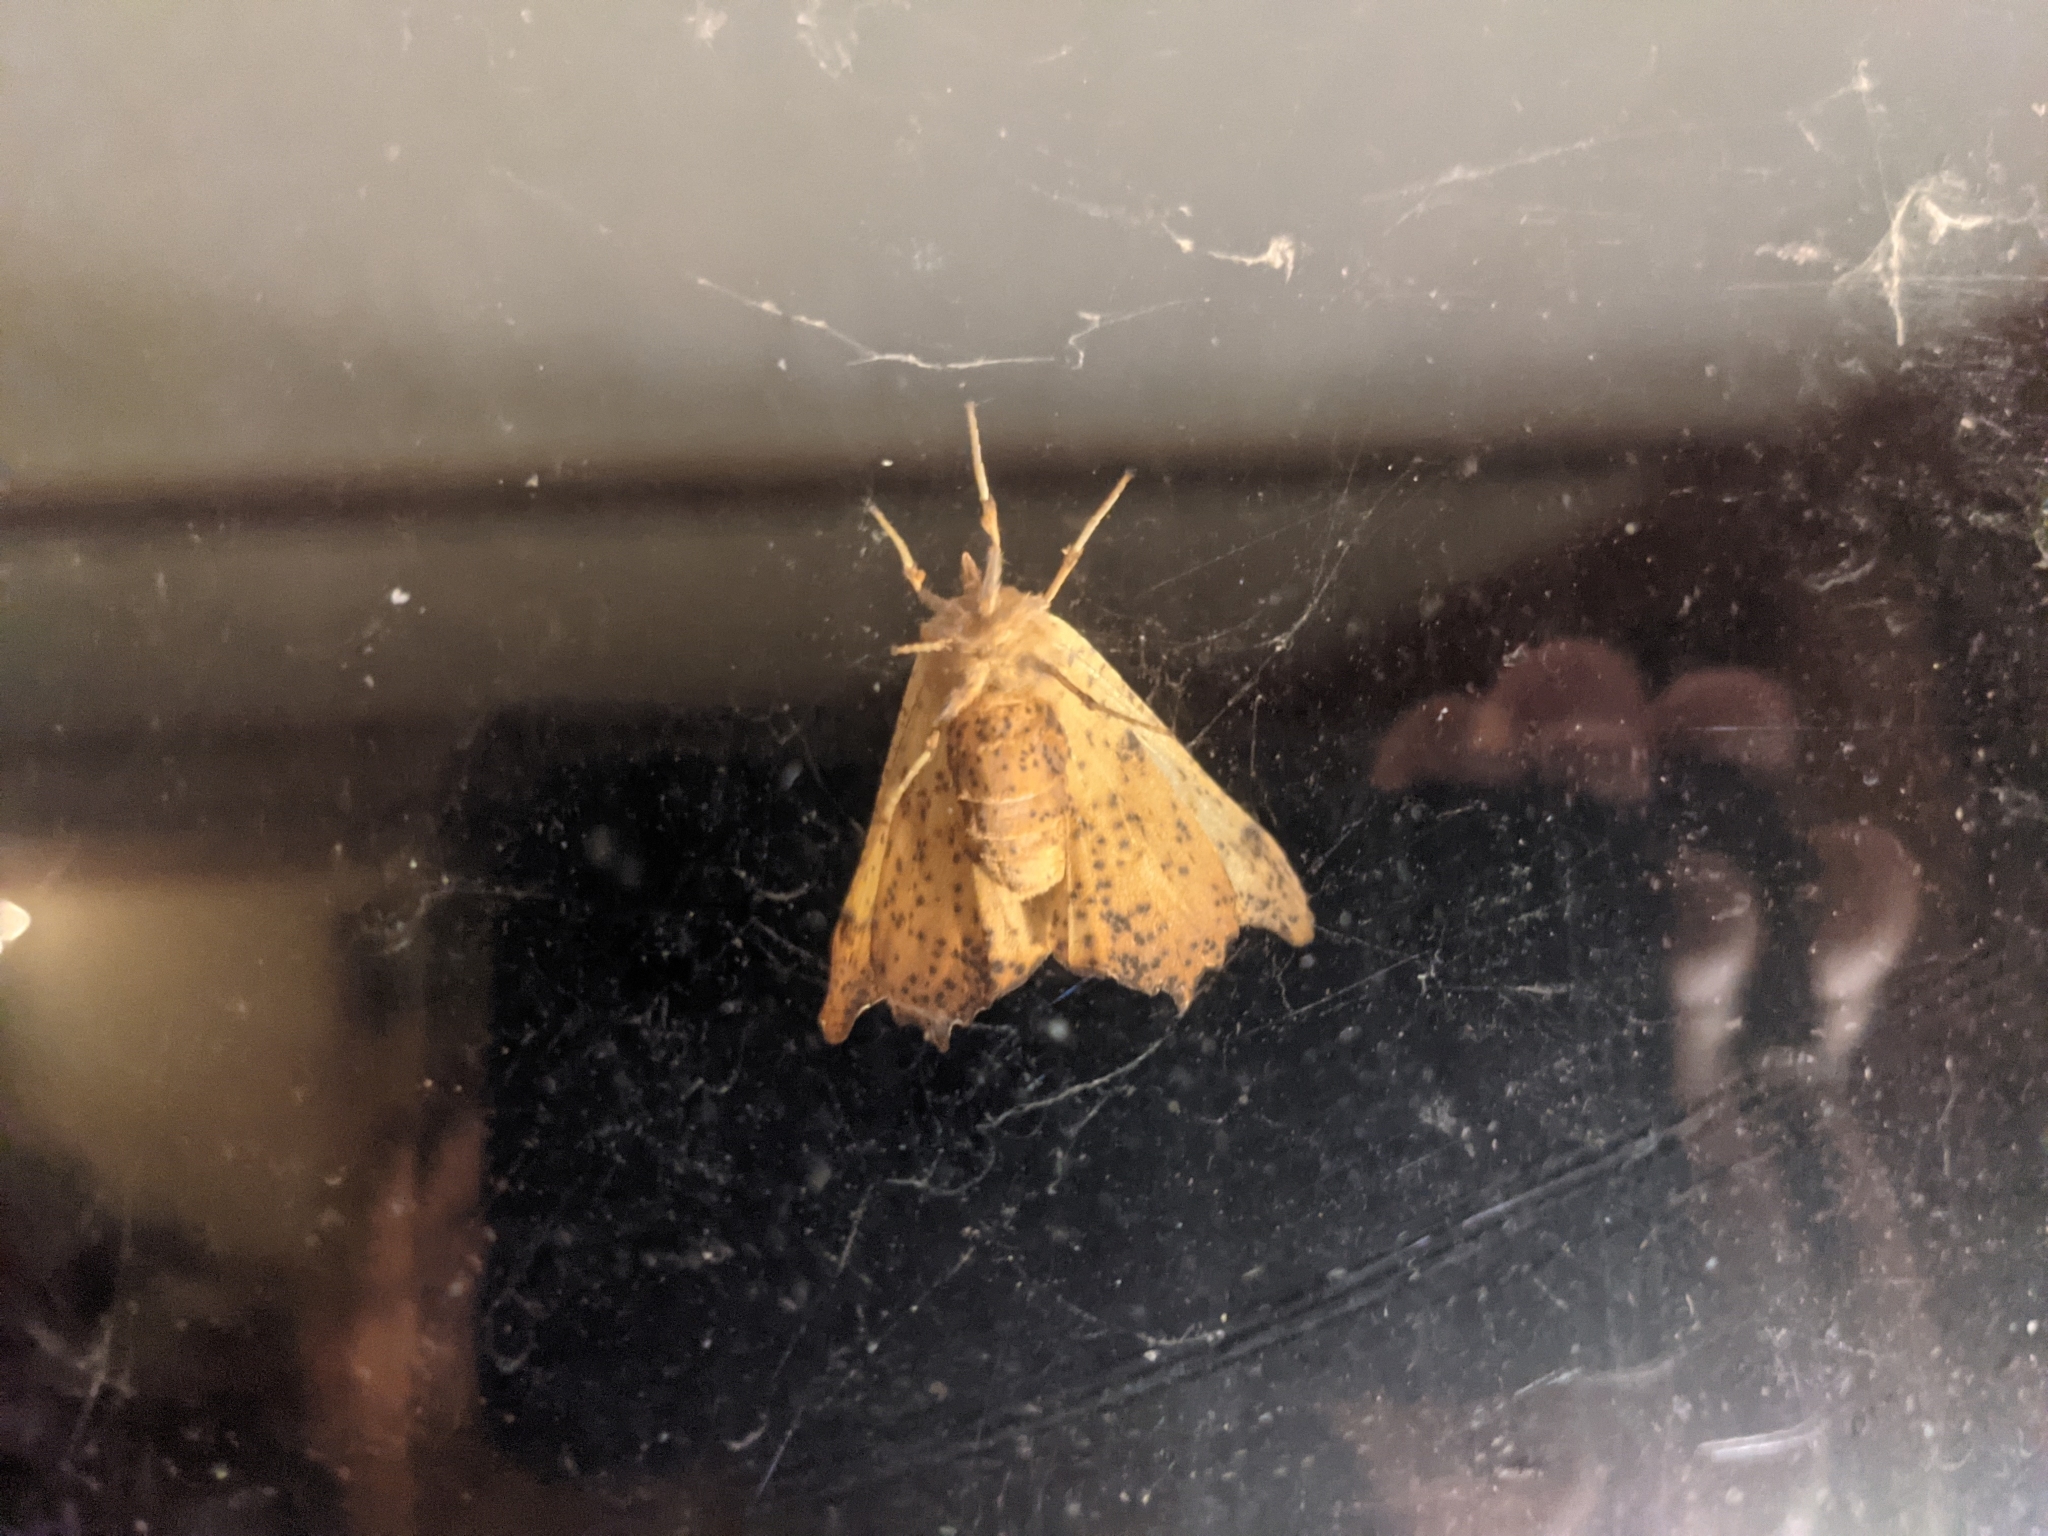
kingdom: Animalia
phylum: Arthropoda
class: Insecta
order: Lepidoptera
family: Geometridae
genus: Ennomos
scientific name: Ennomos magnaria
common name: Maple spanworm
